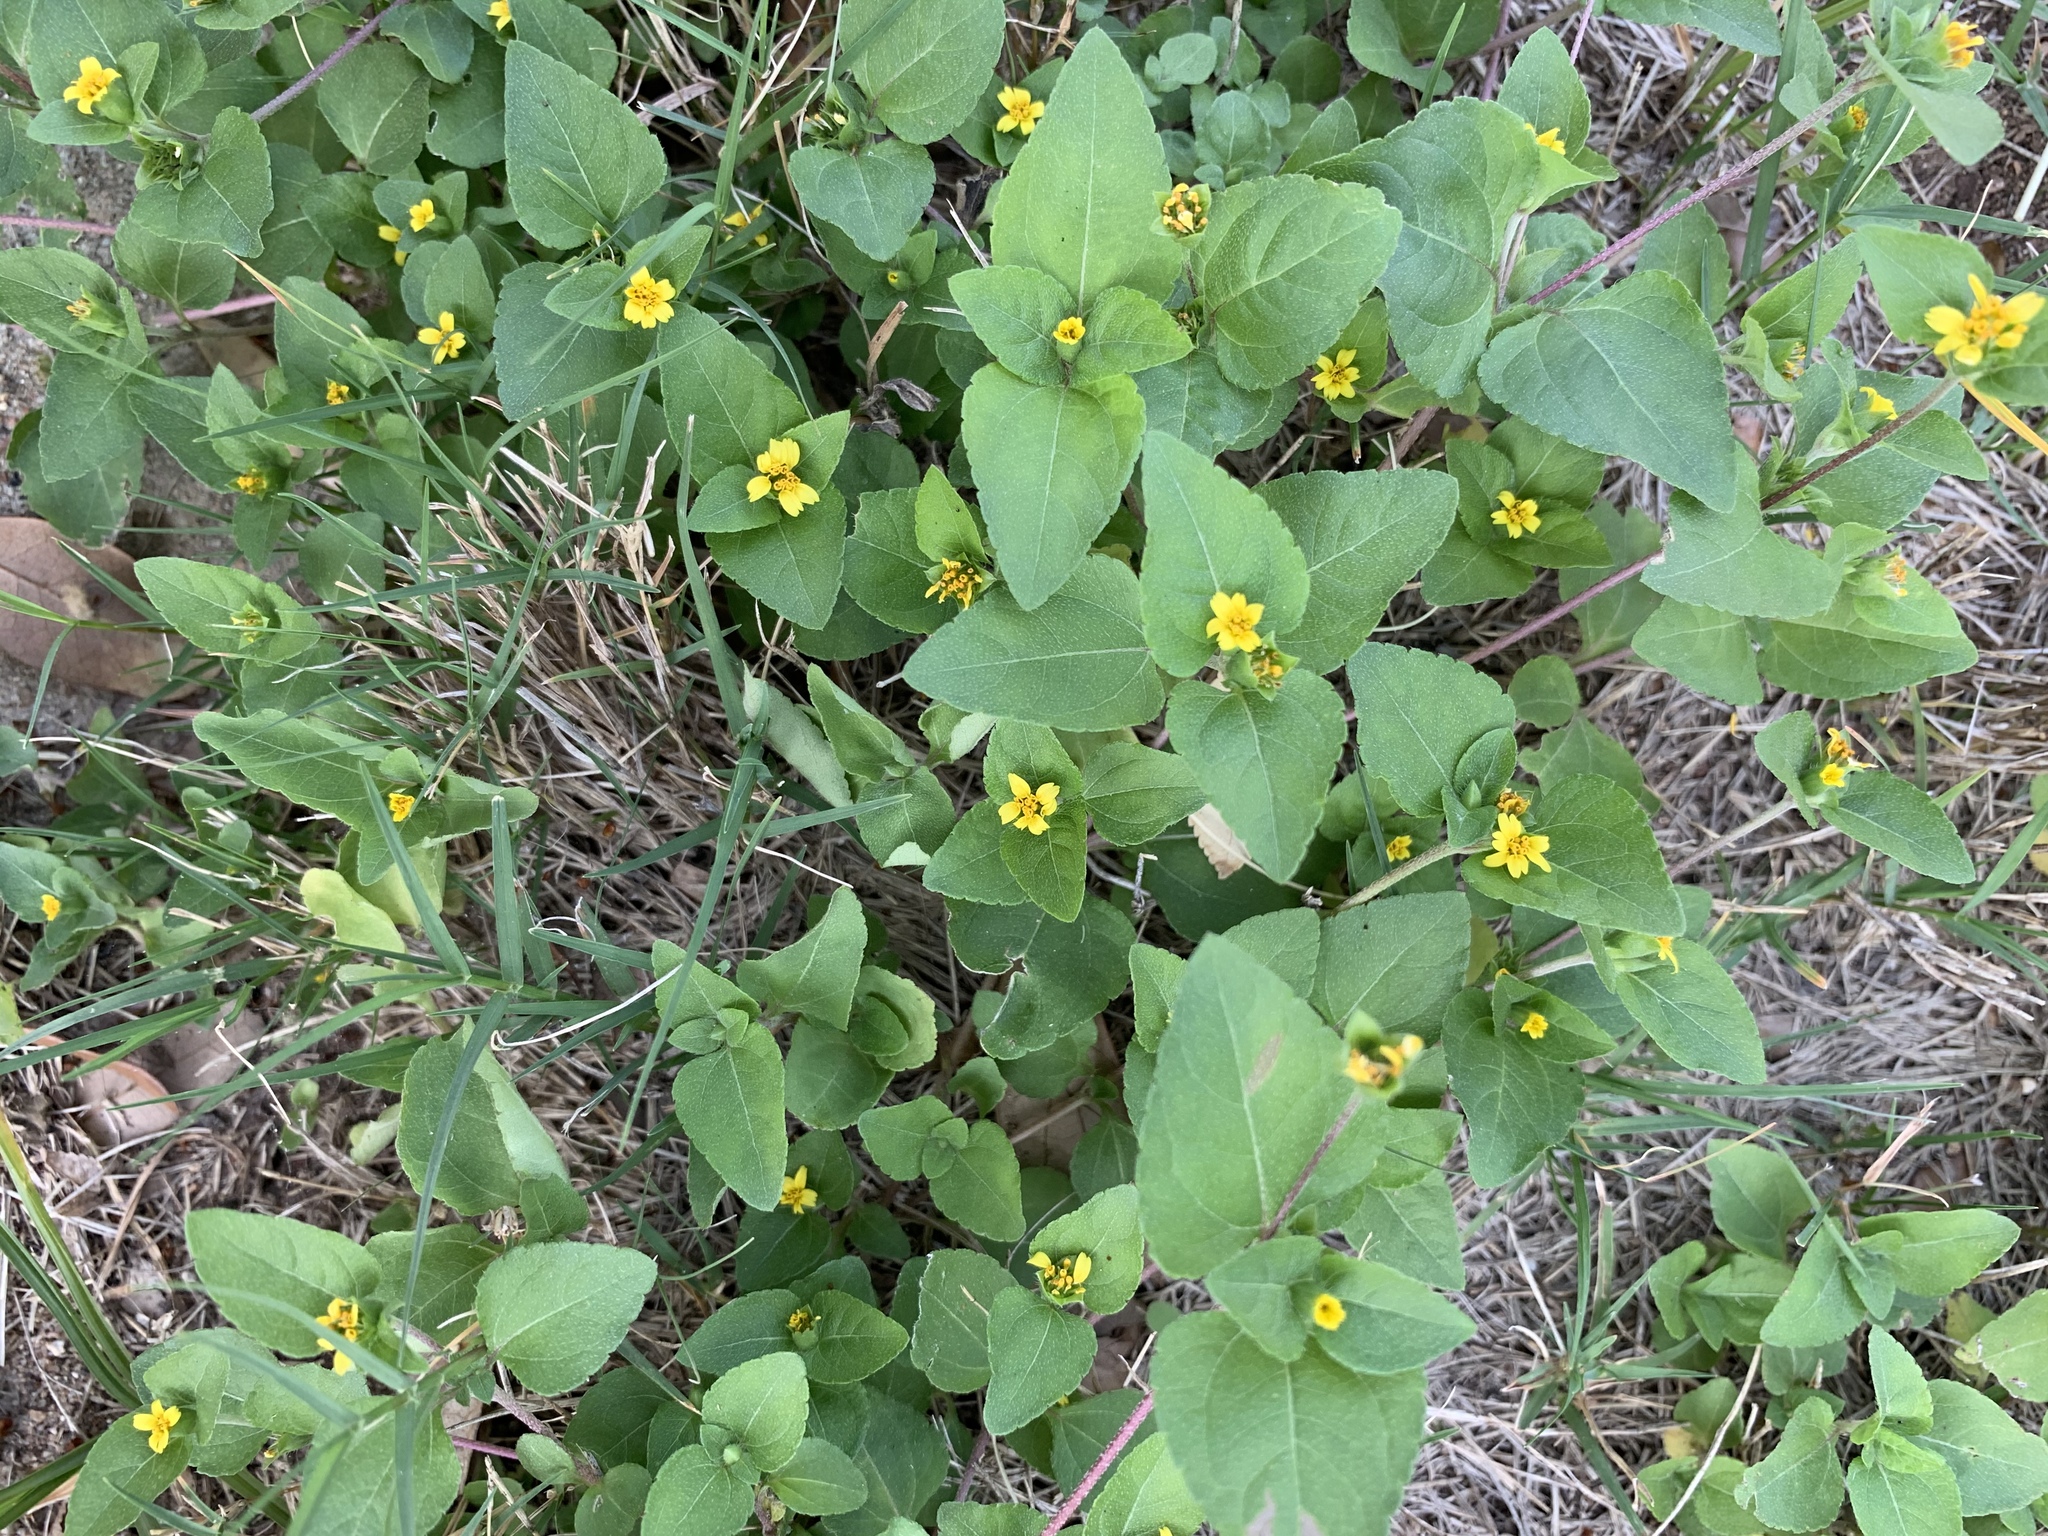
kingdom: Plantae
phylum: Tracheophyta
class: Magnoliopsida
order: Asterales
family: Asteraceae
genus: Calyptocarpus
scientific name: Calyptocarpus vialis
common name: Straggler daisy
